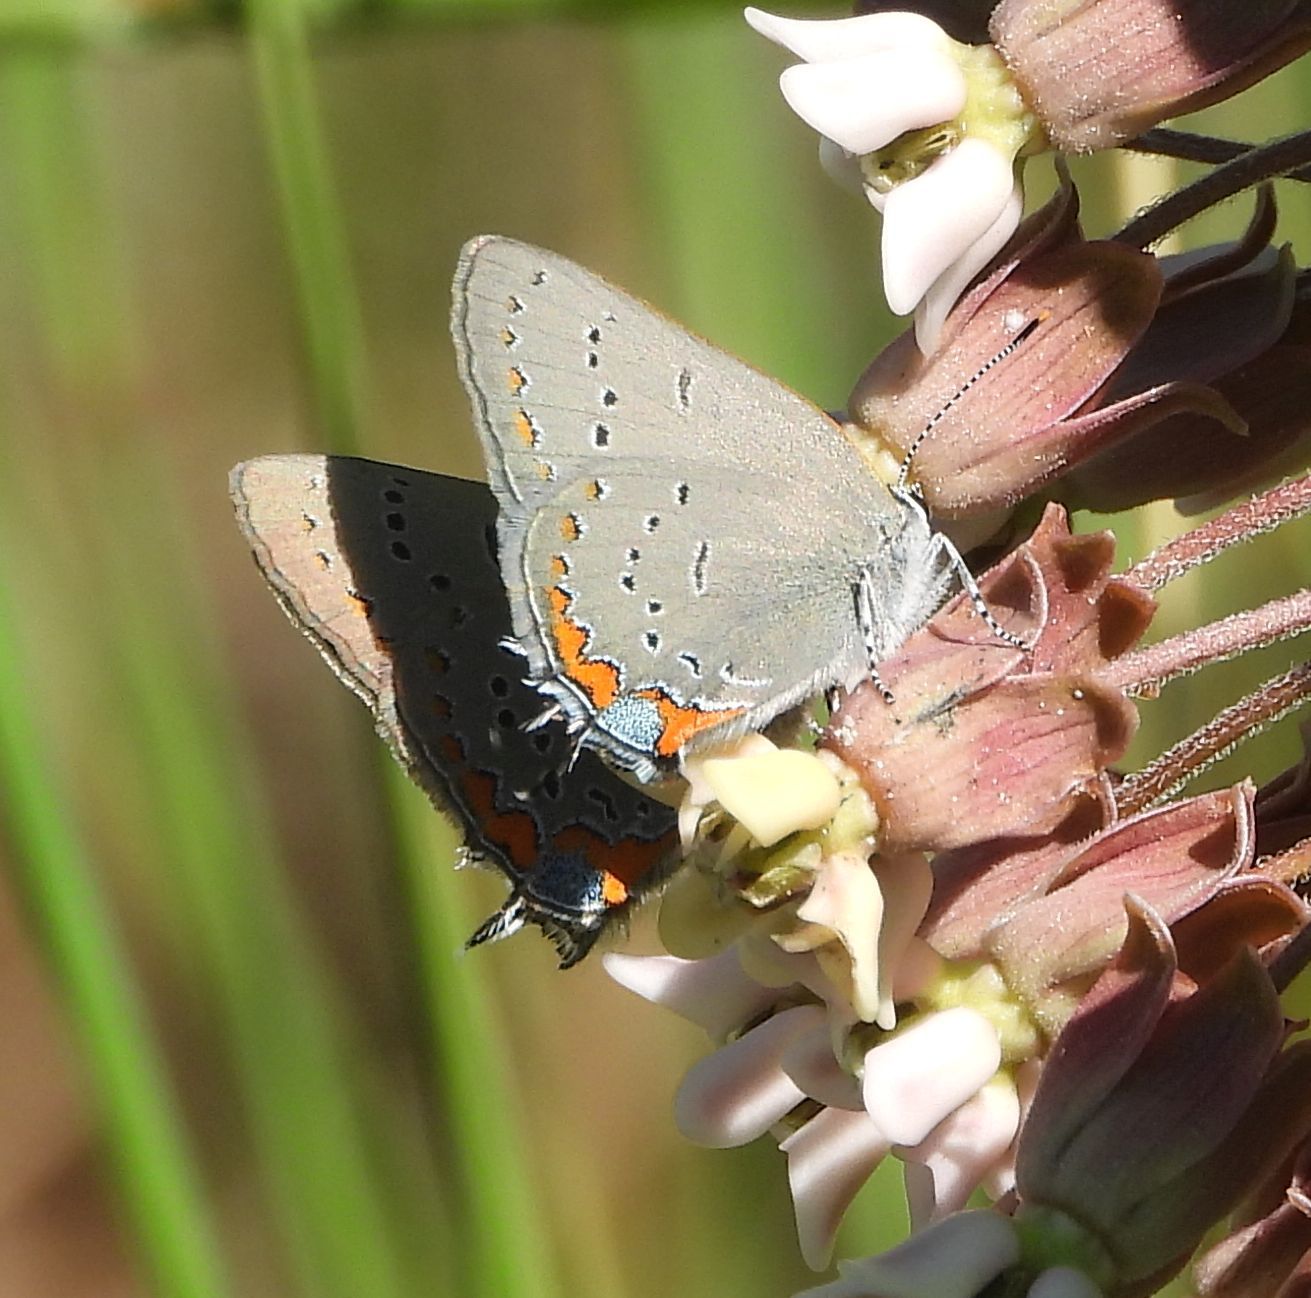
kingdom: Animalia
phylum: Arthropoda
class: Insecta
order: Lepidoptera
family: Lycaenidae
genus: Strymon
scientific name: Strymon acadica
